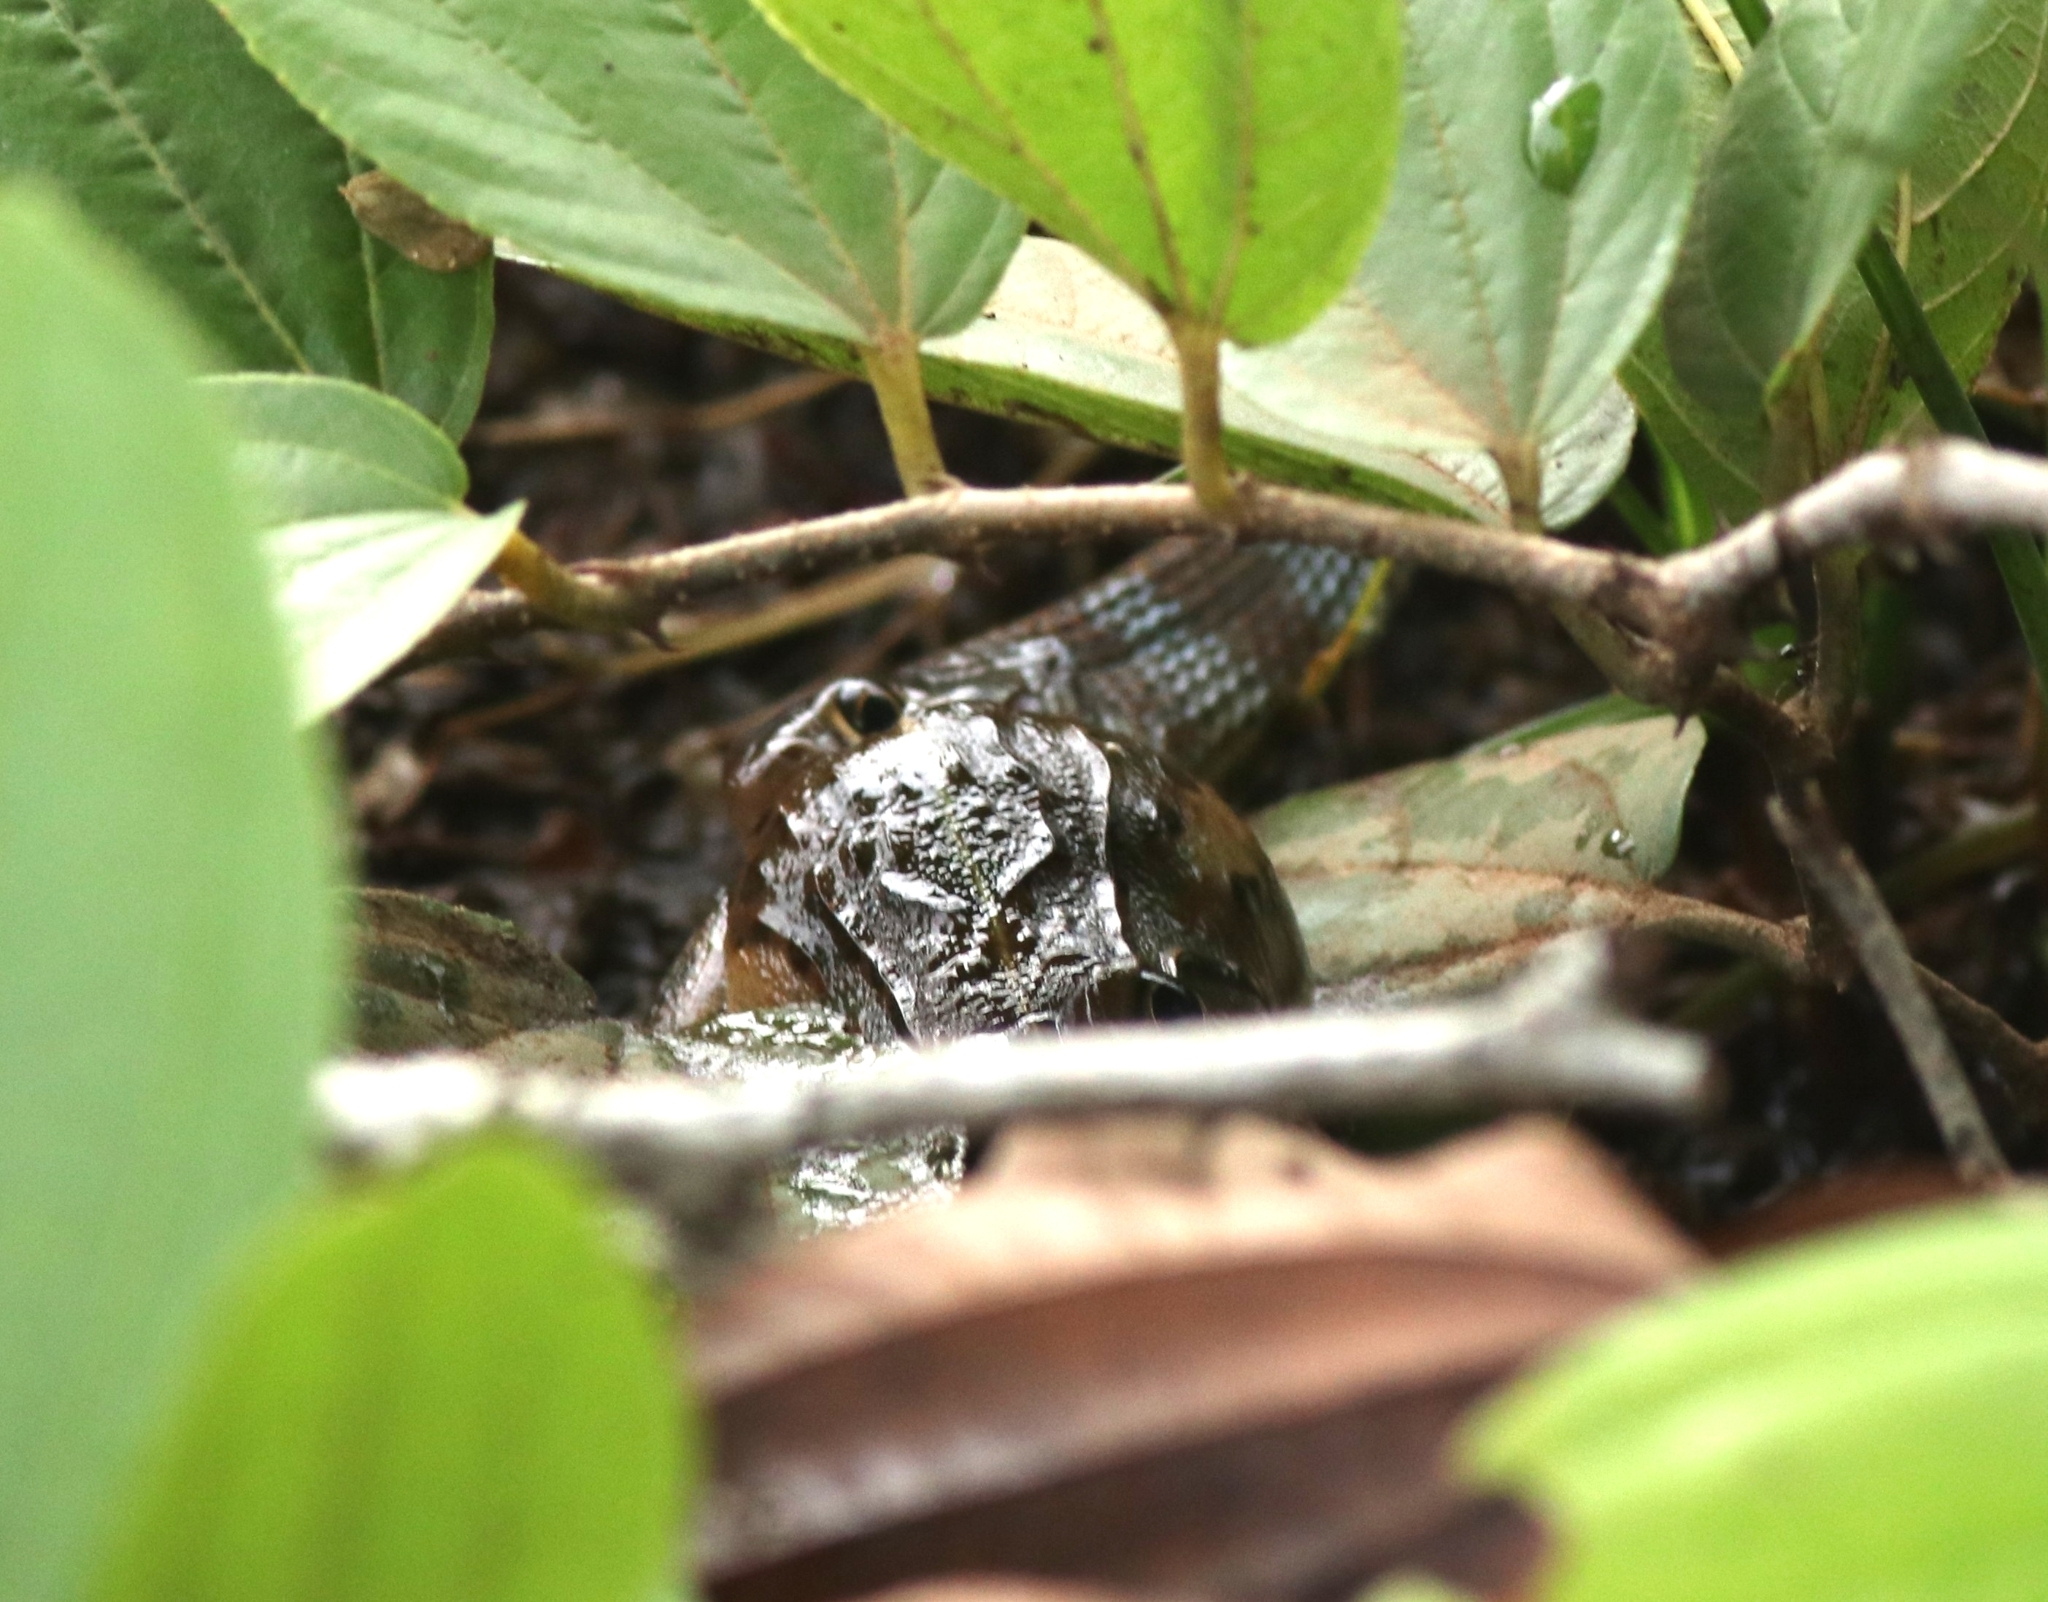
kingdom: Animalia
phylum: Chordata
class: Squamata
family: Colubridae
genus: Amphiesma
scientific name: Amphiesma stolatum
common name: Buff striped keelback
